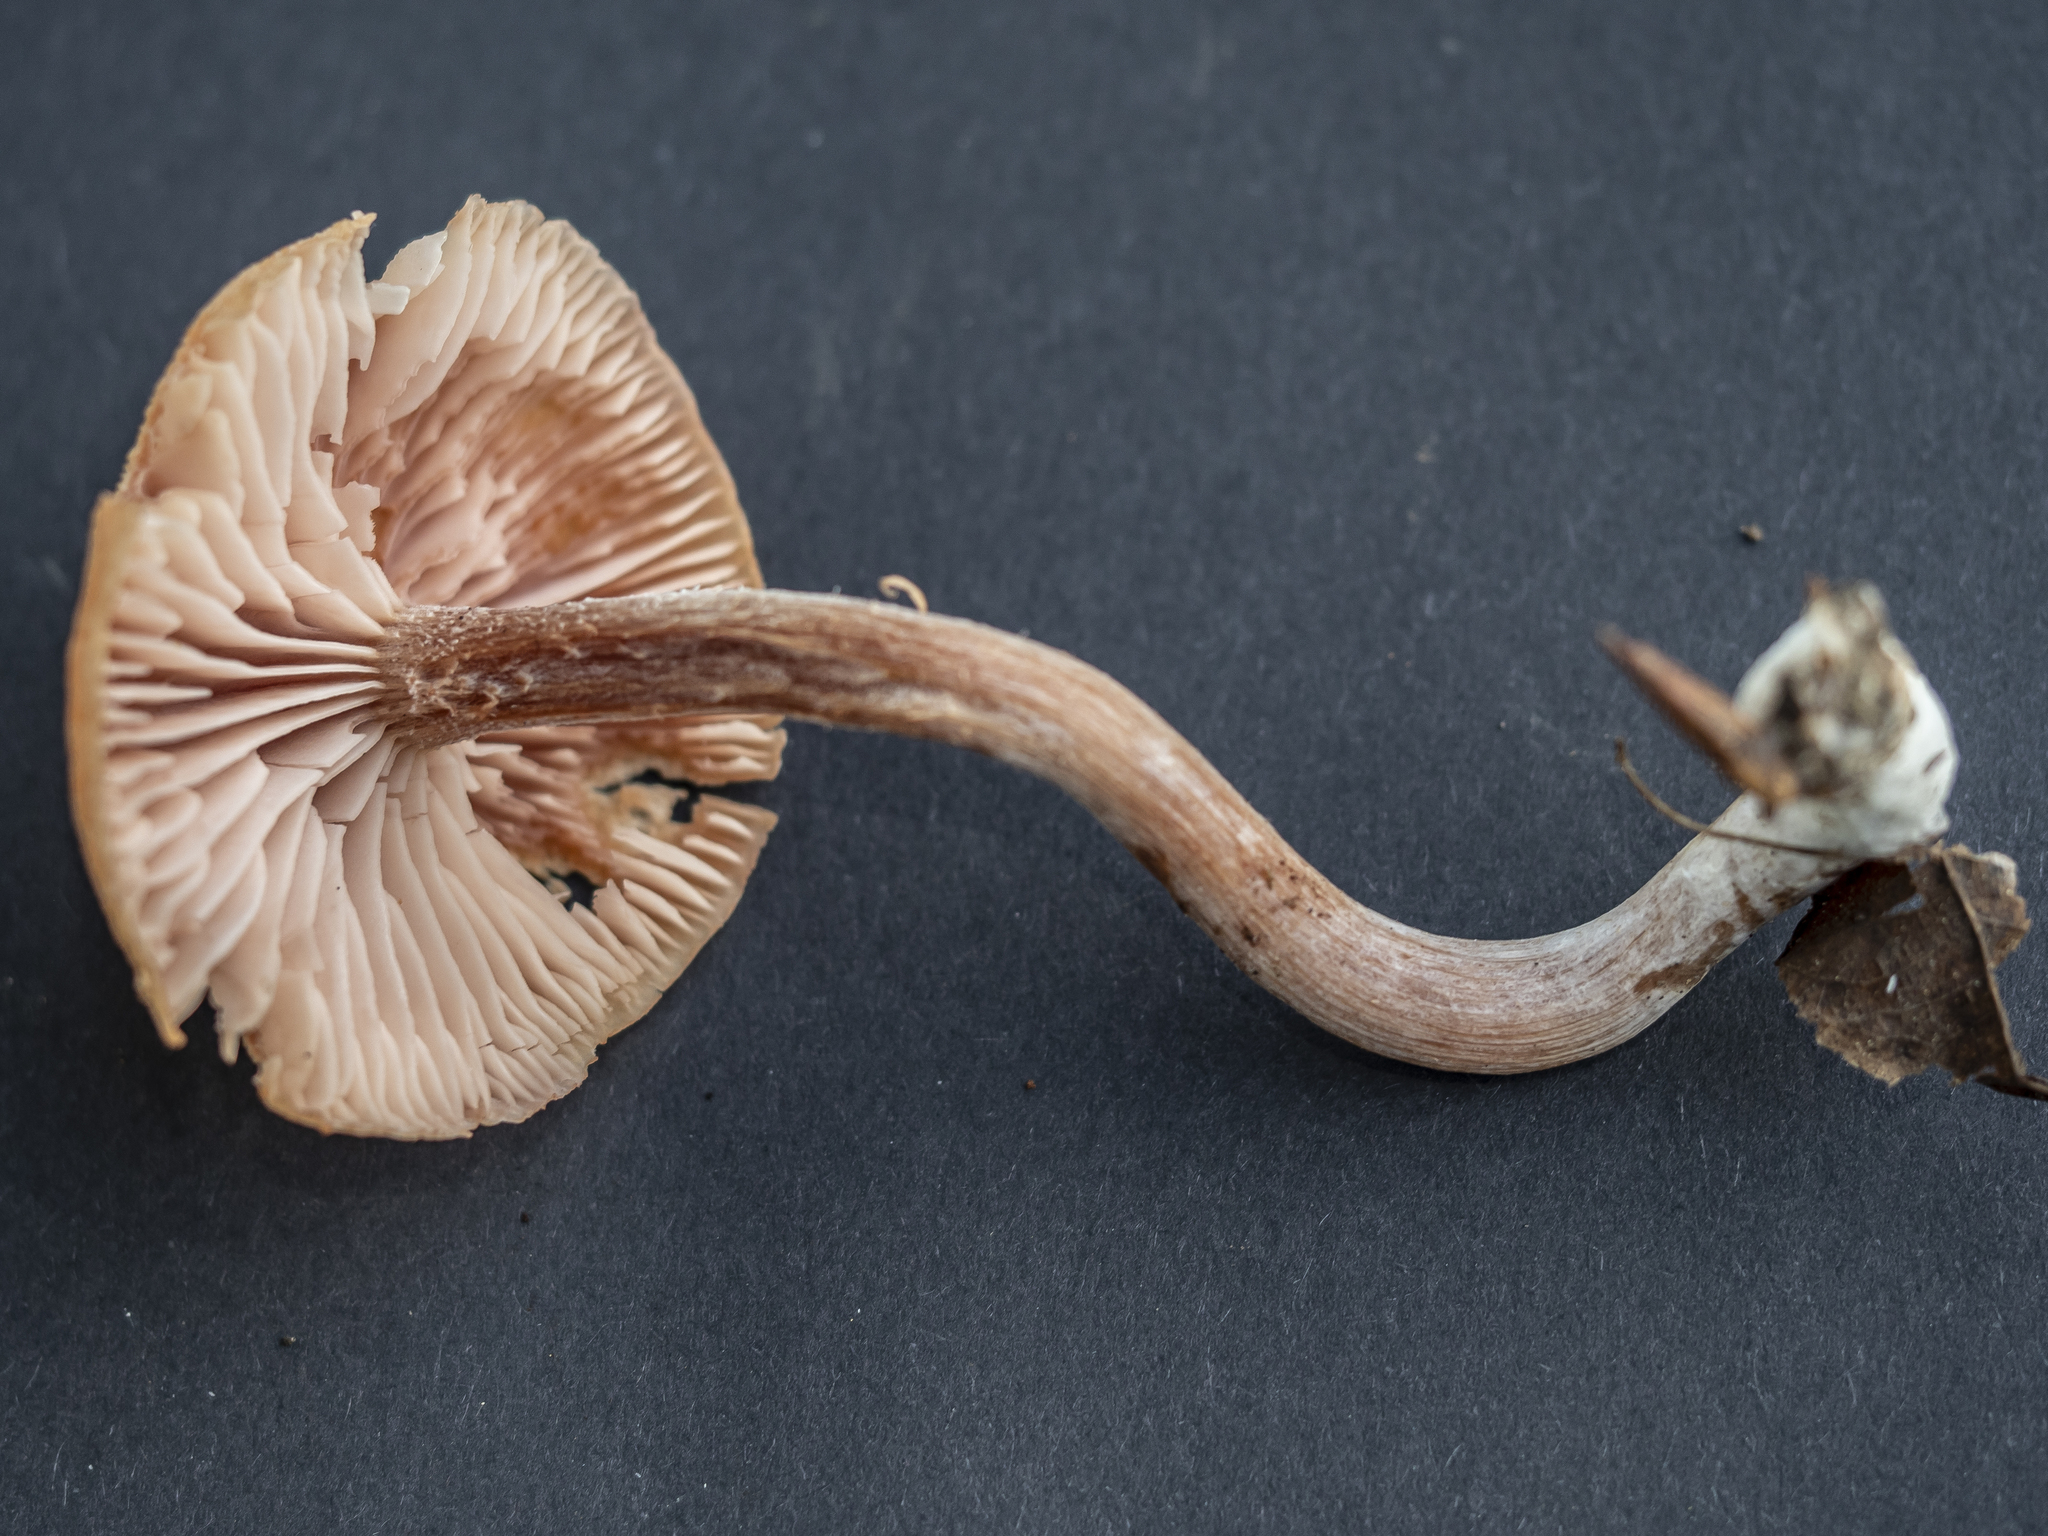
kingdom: Fungi
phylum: Basidiomycota
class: Agaricomycetes
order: Agaricales
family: Hydnangiaceae
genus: Laccaria
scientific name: Laccaria tetraspora
